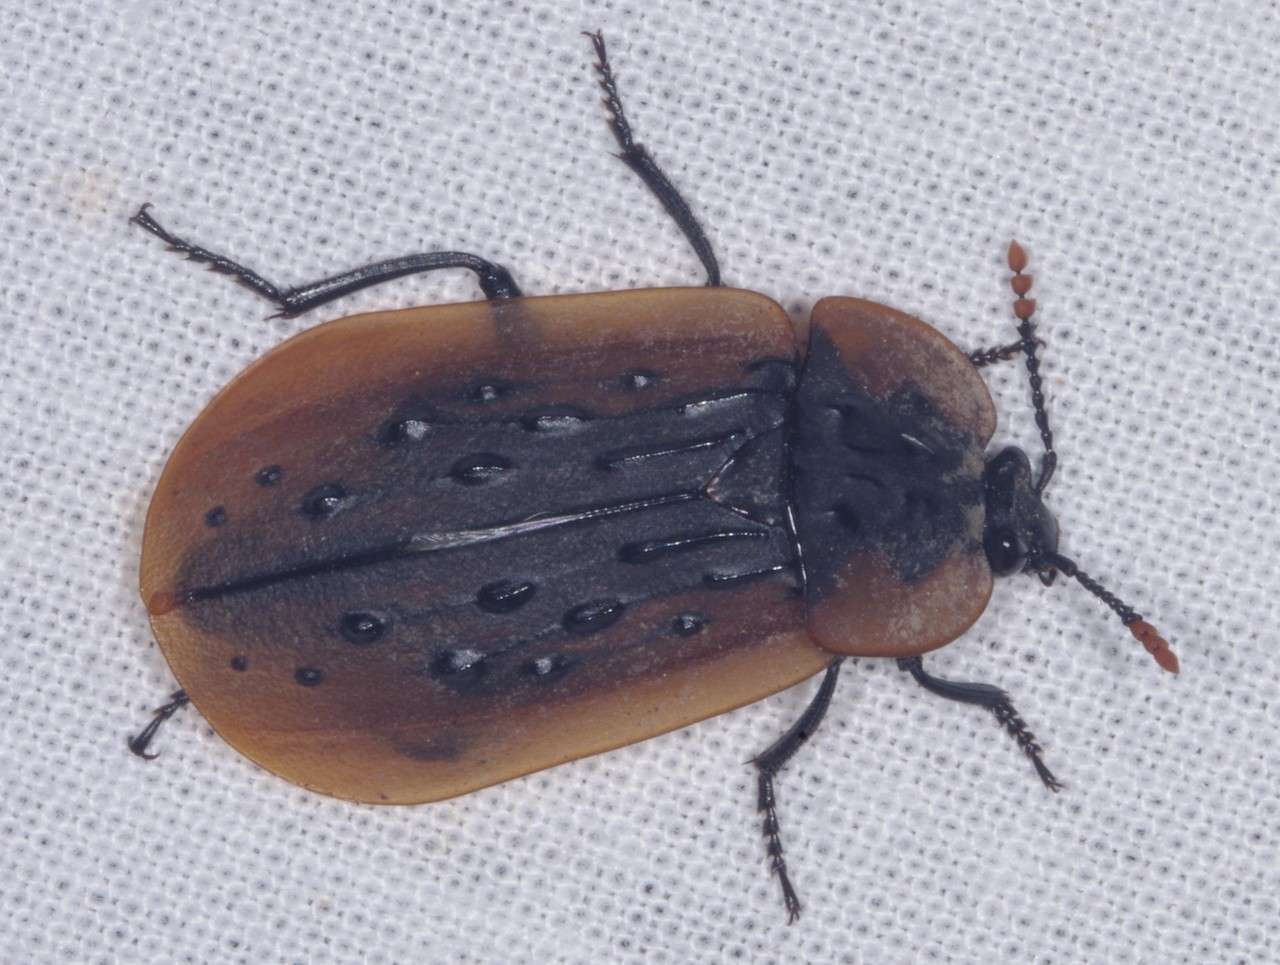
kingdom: Animalia
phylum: Arthropoda
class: Insecta
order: Coleoptera
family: Staphylinidae
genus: Ptomaphila
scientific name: Ptomaphila lacrymosa
